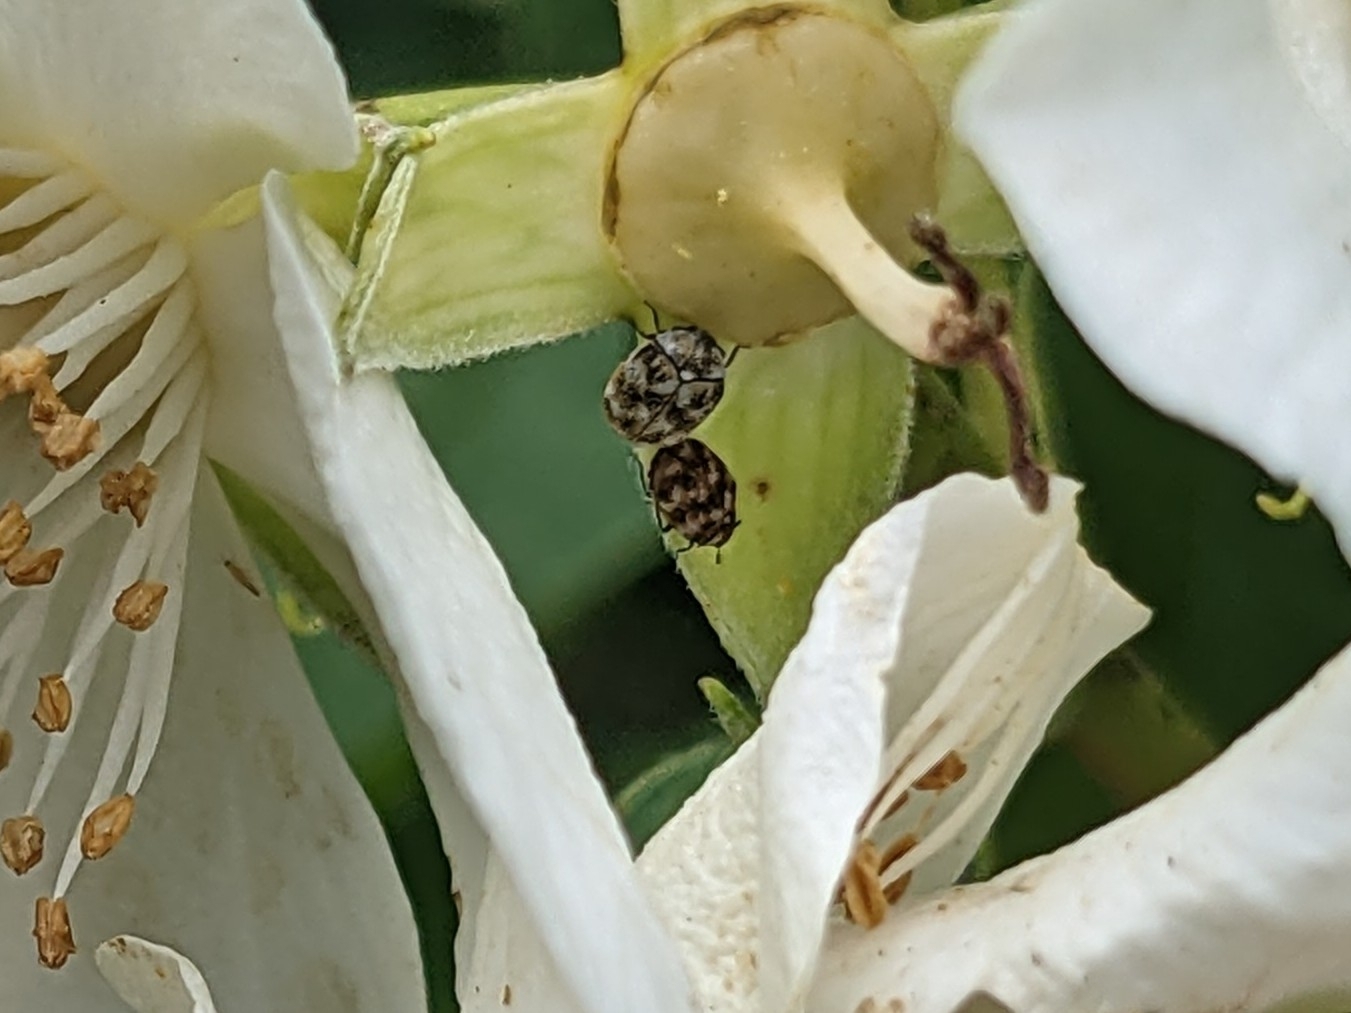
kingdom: Animalia
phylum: Arthropoda
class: Insecta
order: Coleoptera
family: Dermestidae
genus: Anthrenus
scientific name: Anthrenus verbasci
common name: Varied carpet beetle
